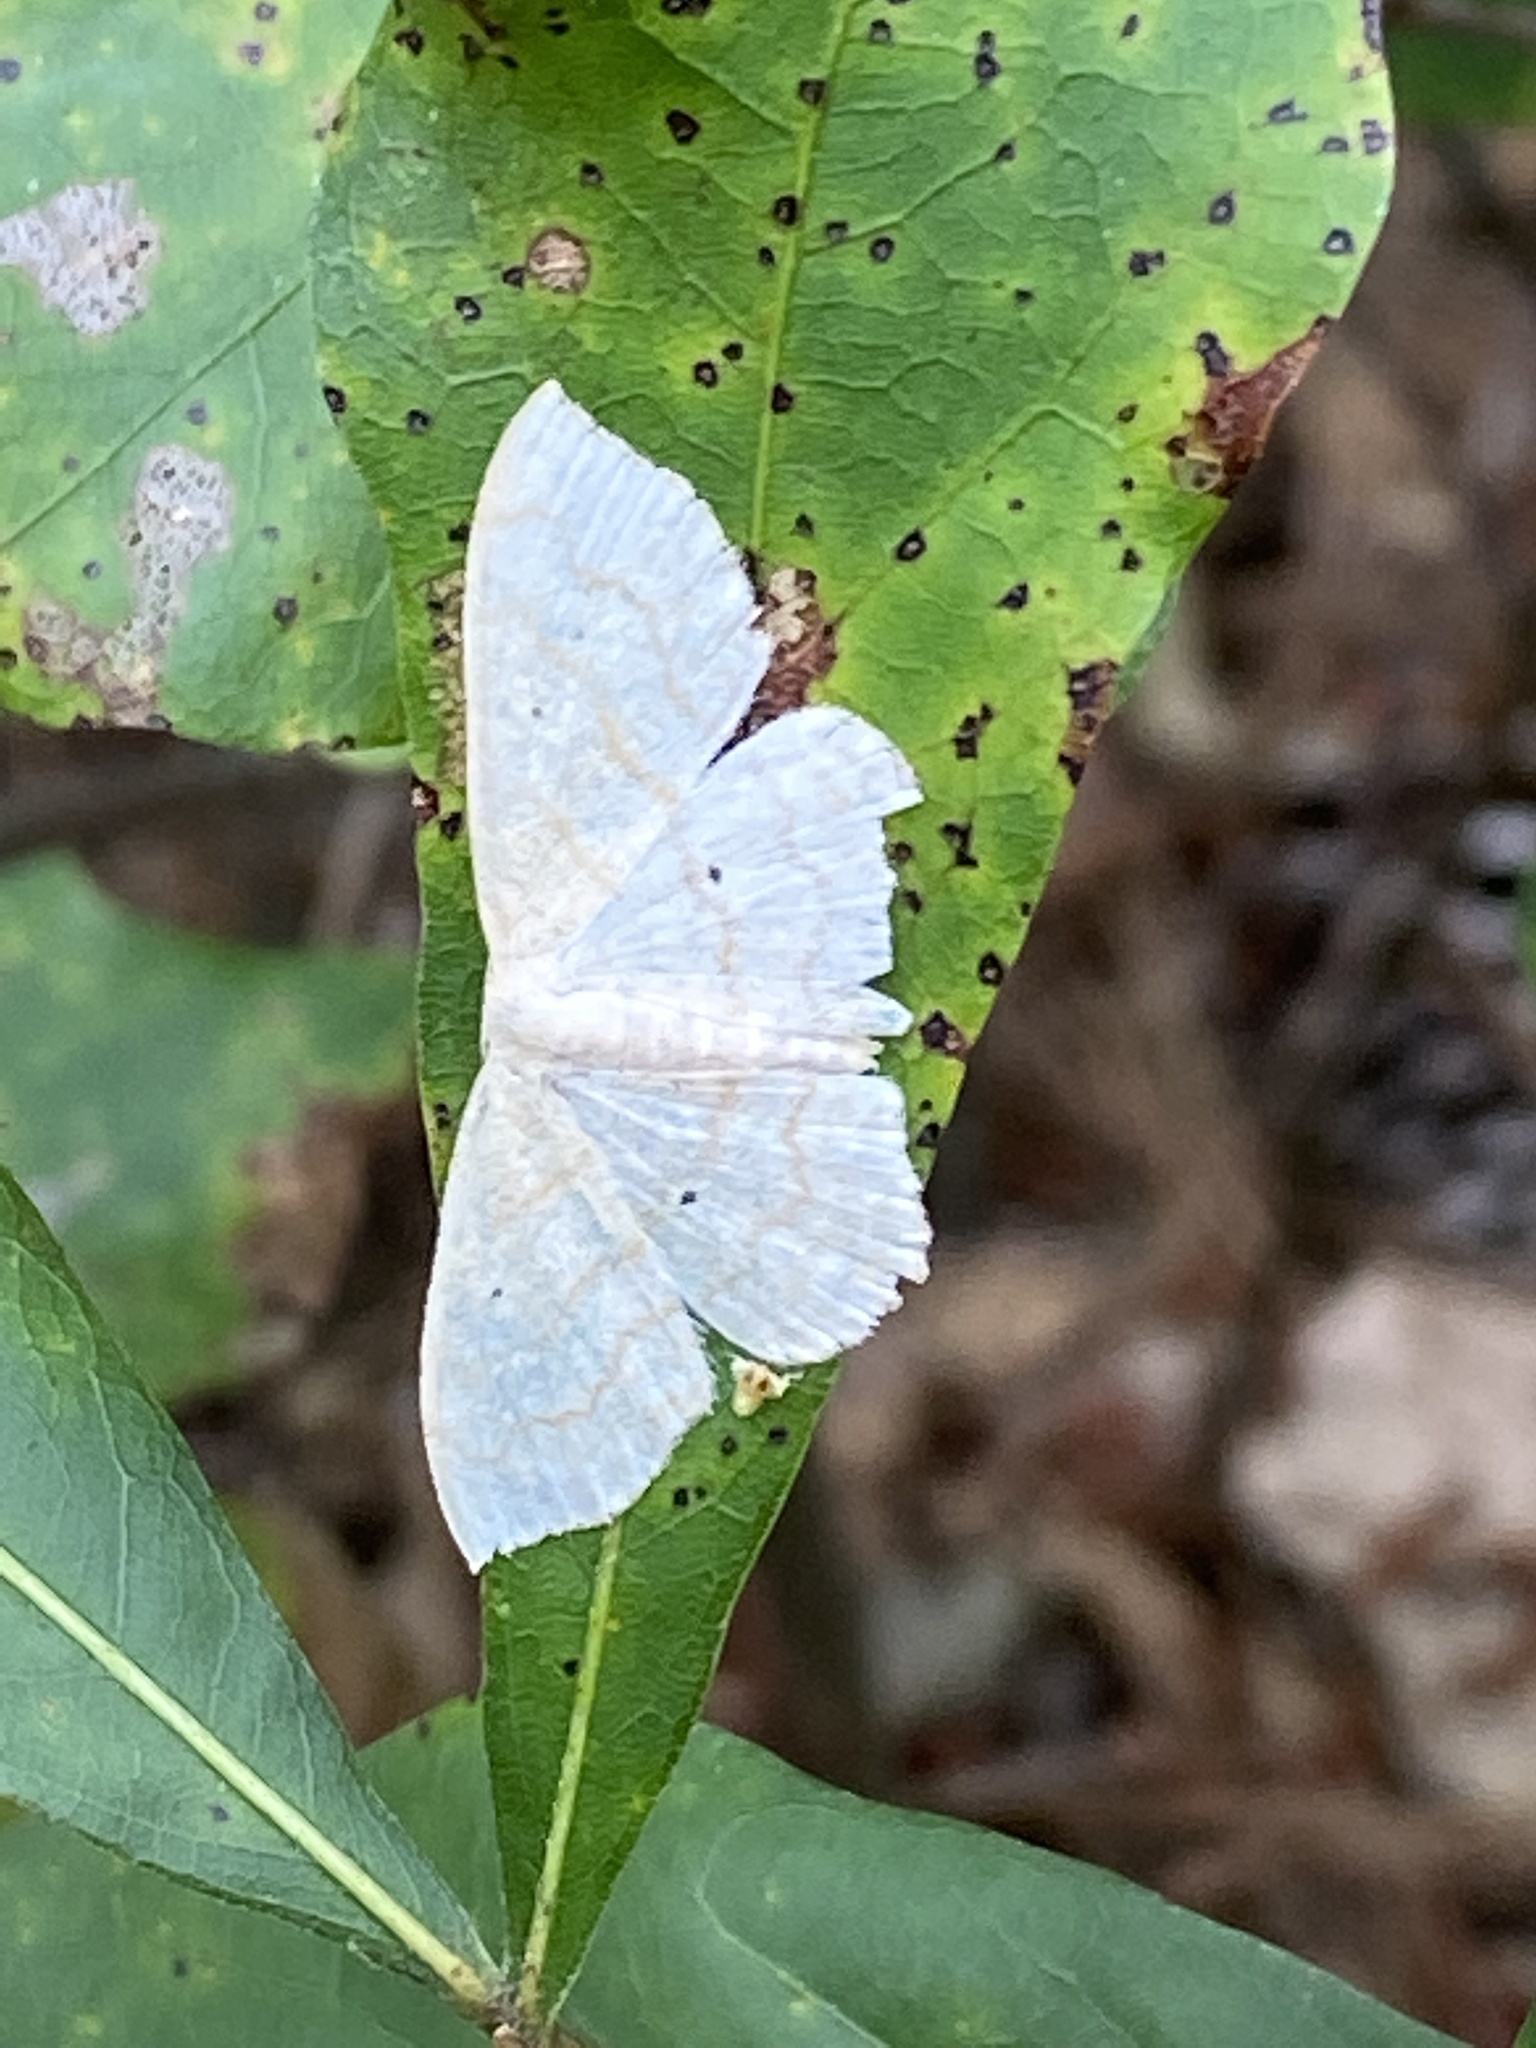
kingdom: Animalia
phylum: Arthropoda
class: Insecta
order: Lepidoptera
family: Geometridae
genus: Scopula
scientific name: Scopula limboundata
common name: Large lace border
